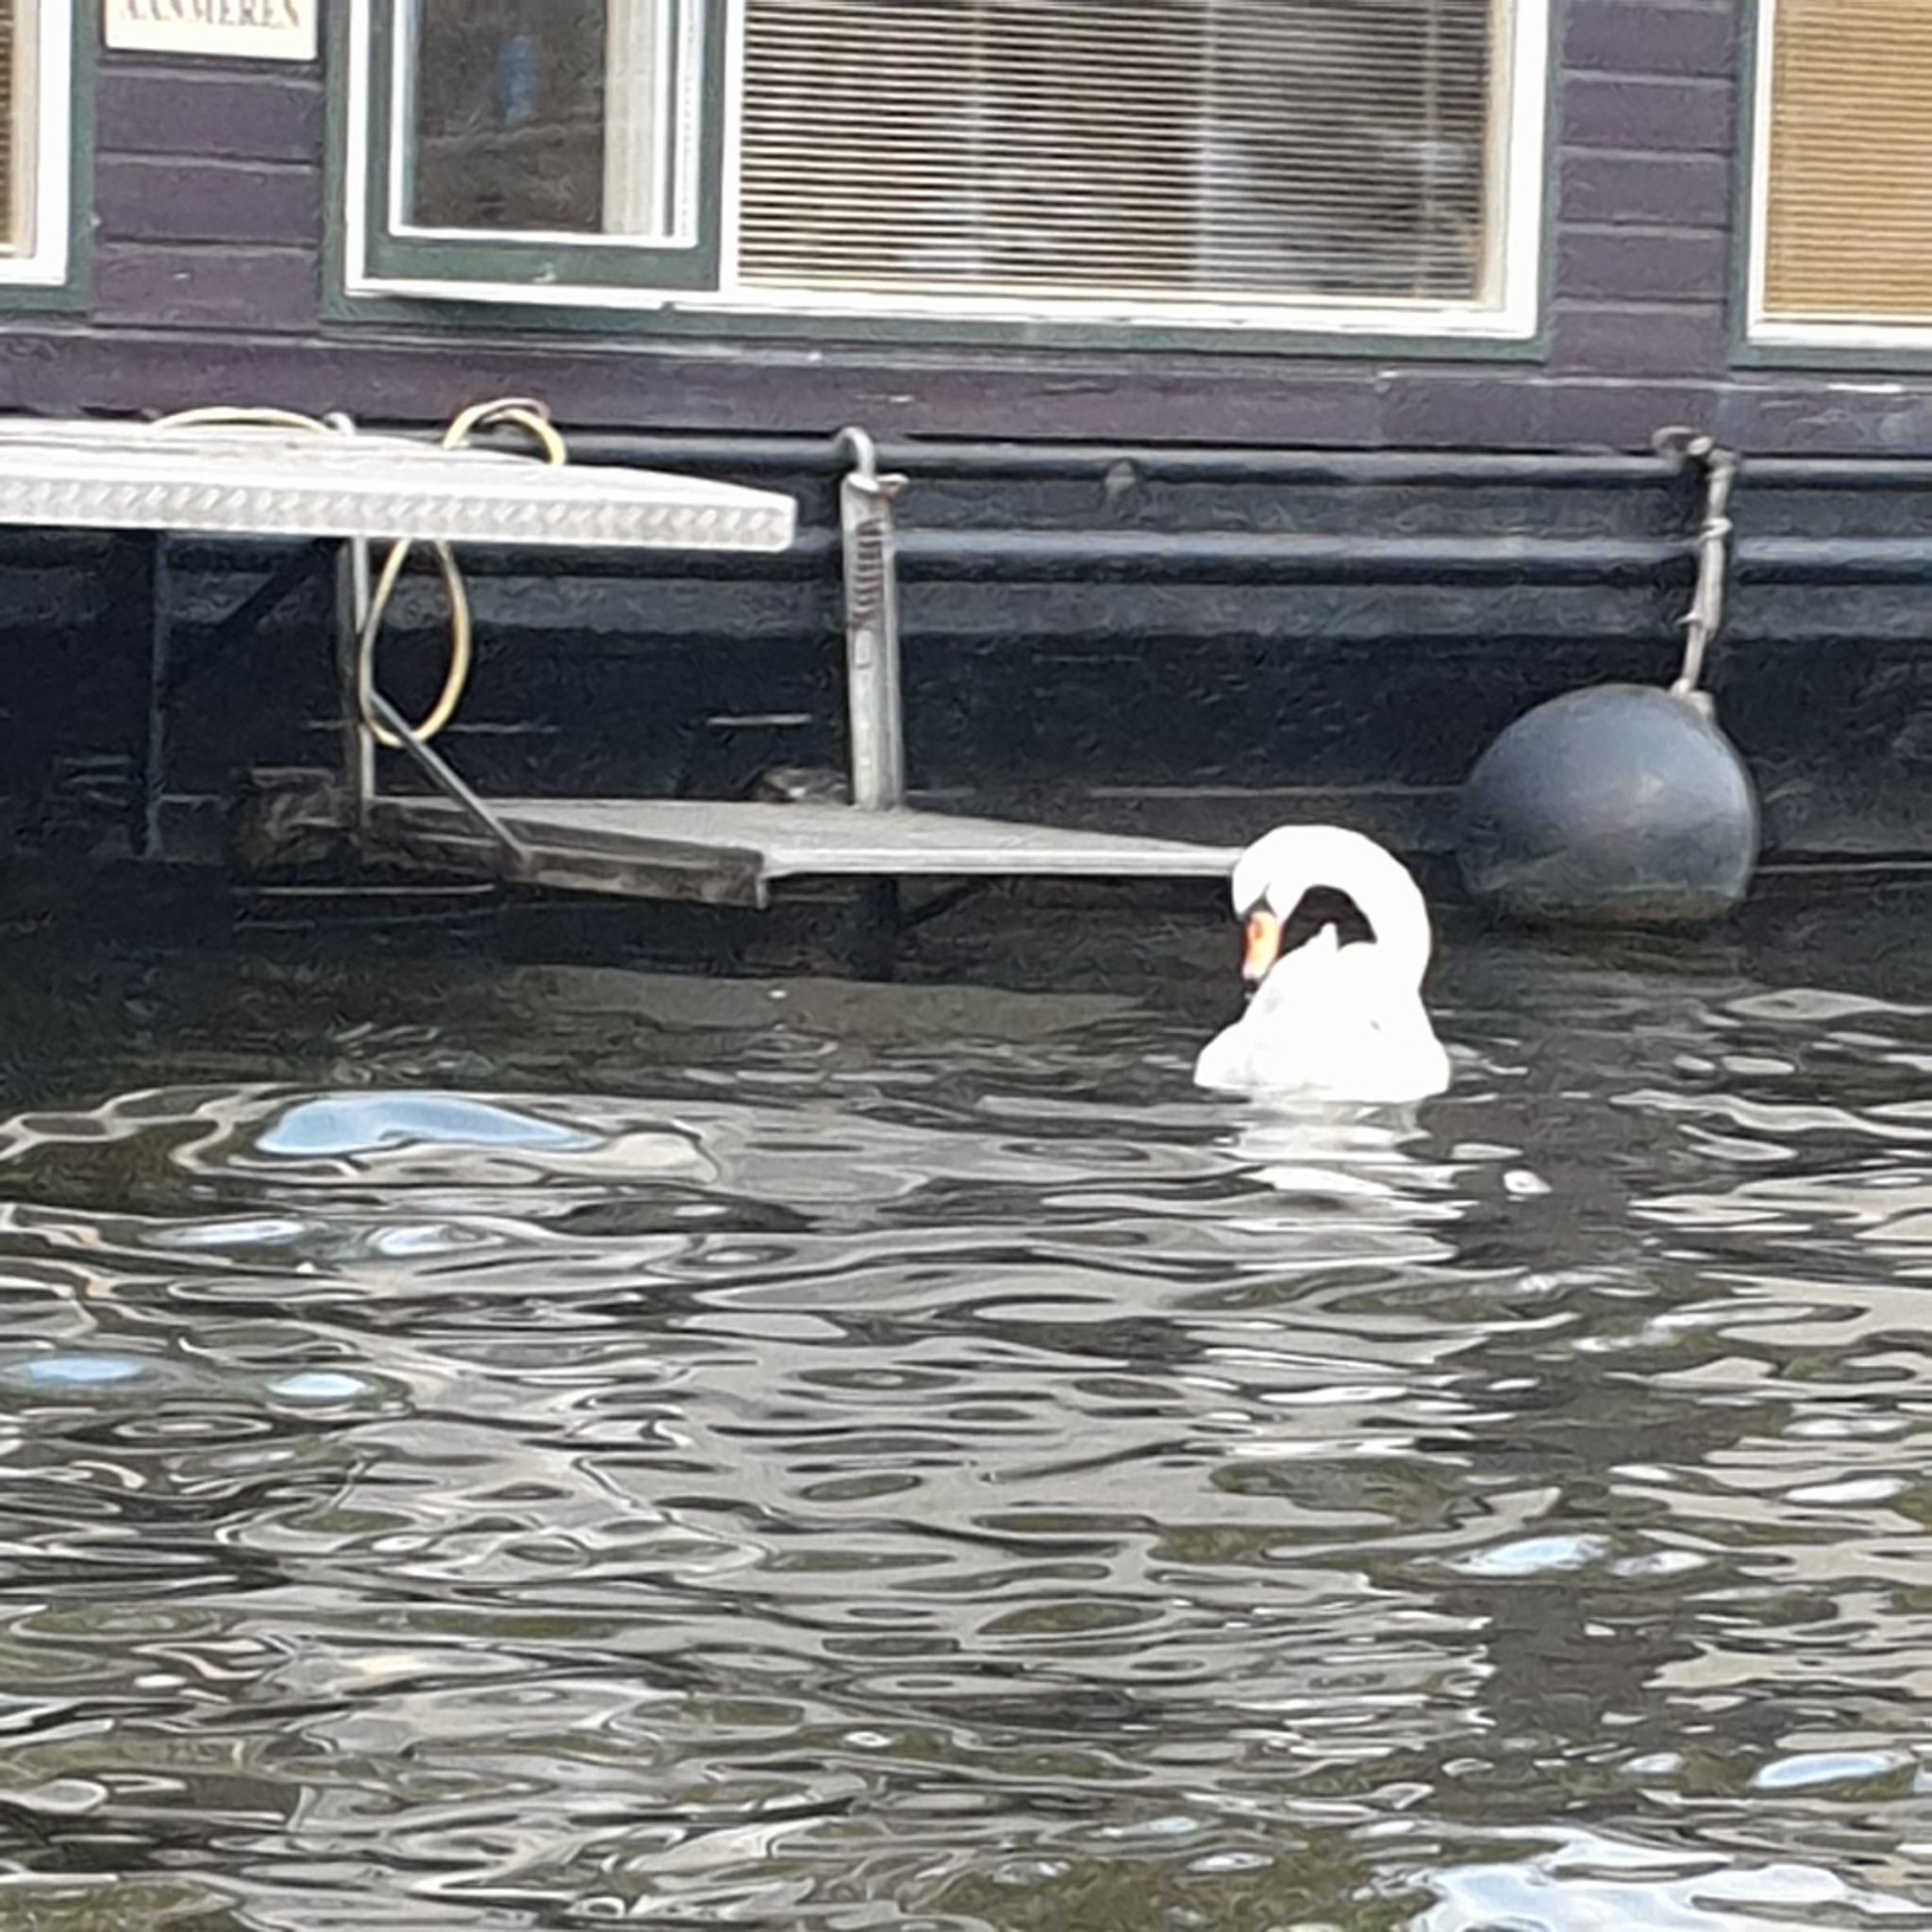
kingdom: Animalia
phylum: Chordata
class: Aves
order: Anseriformes
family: Anatidae
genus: Cygnus
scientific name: Cygnus olor
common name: Mute swan
